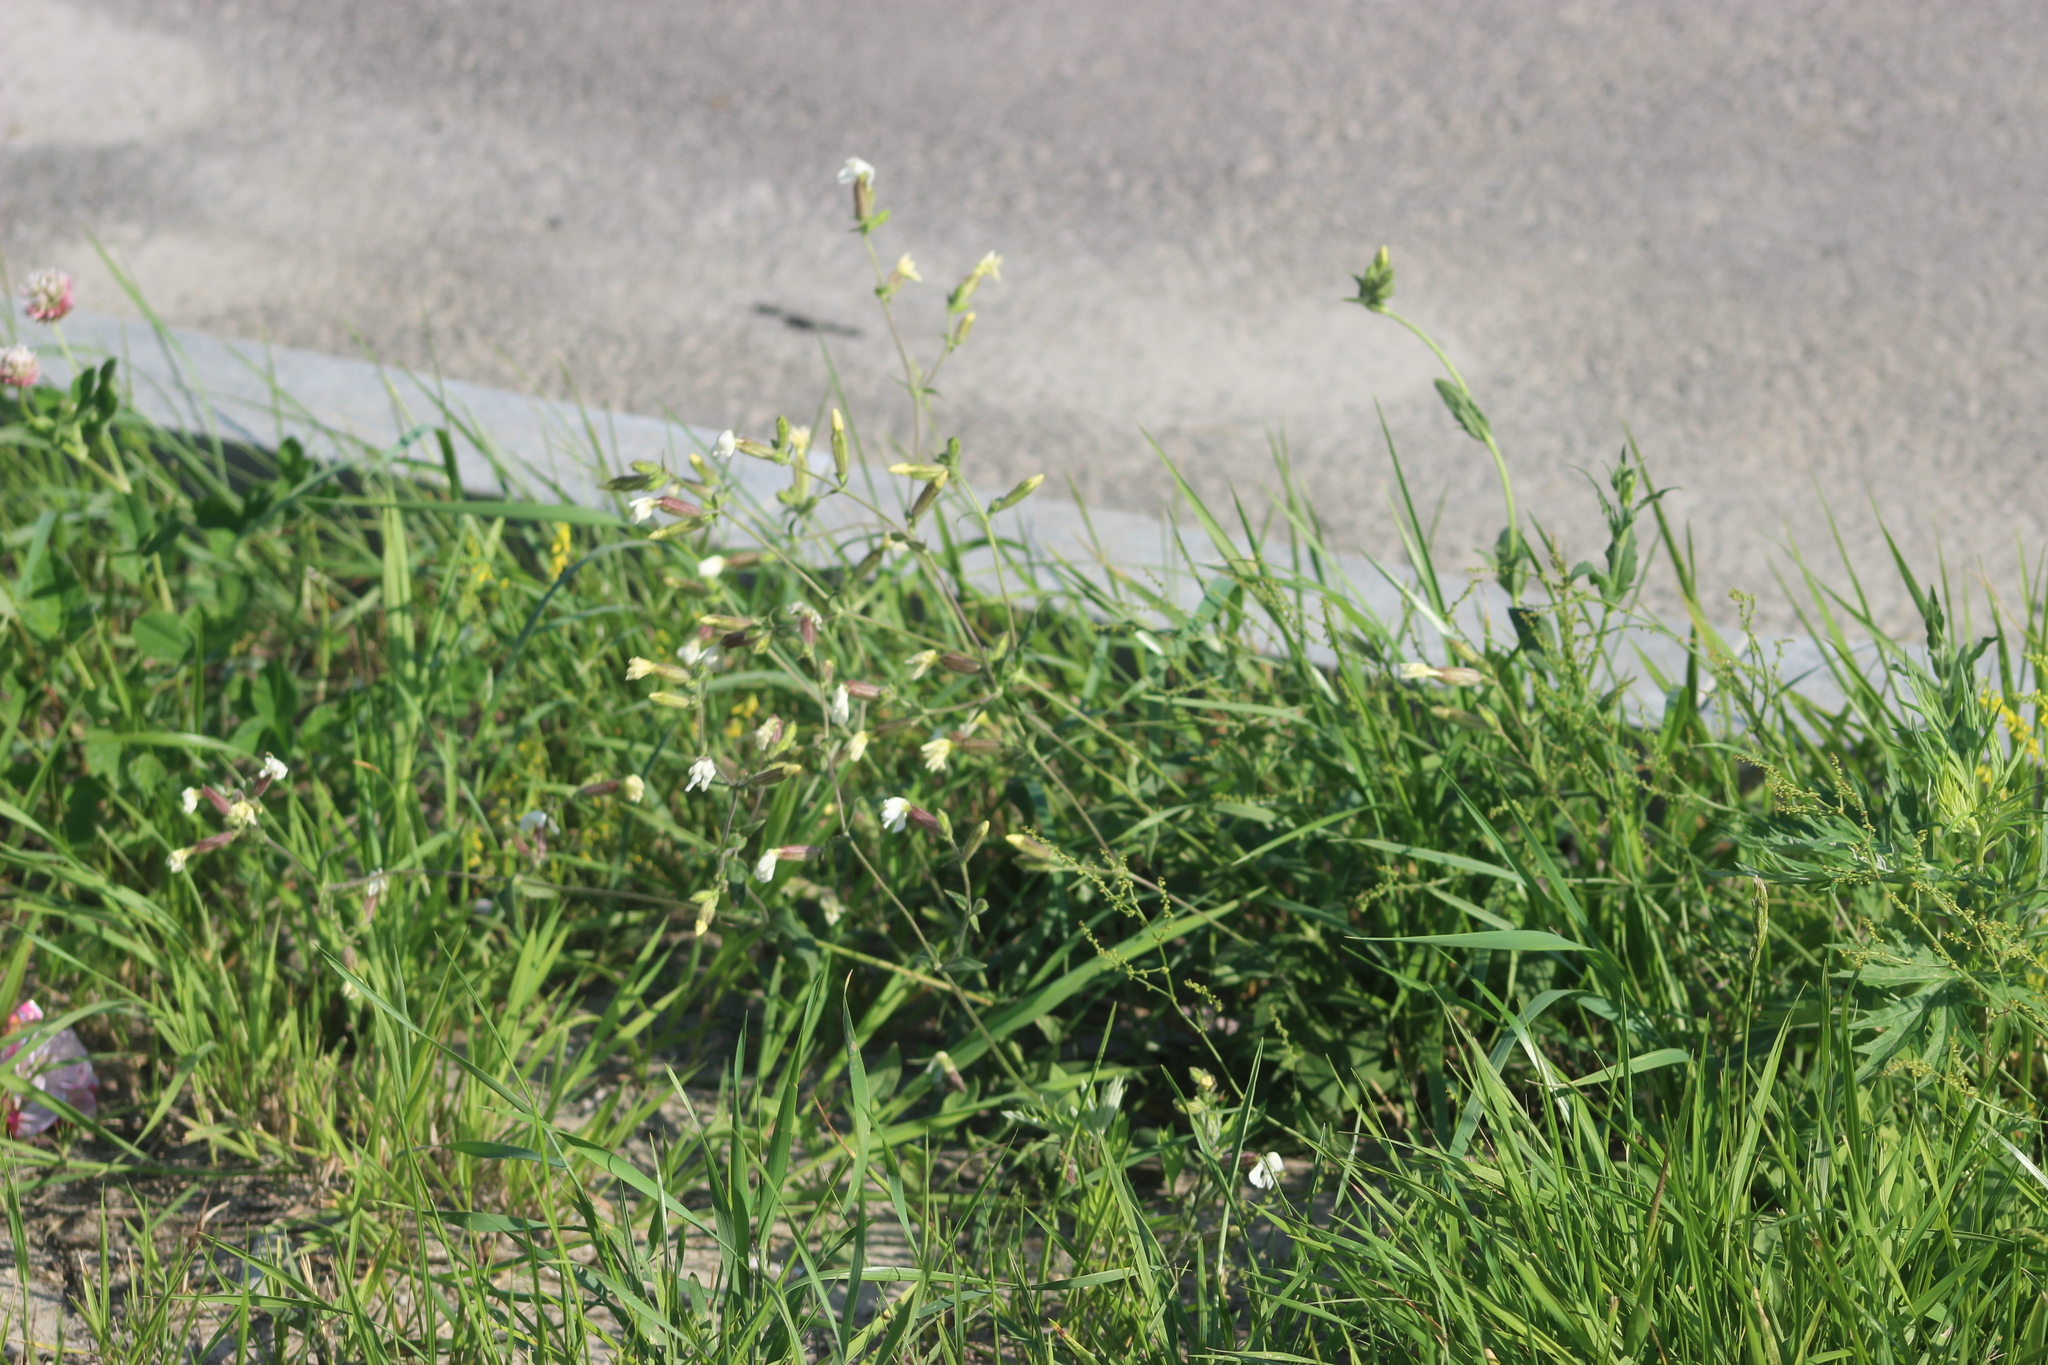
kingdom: Plantae
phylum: Tracheophyta
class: Magnoliopsida
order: Caryophyllales
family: Caryophyllaceae
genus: Silene
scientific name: Silene latifolia
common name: White campion
